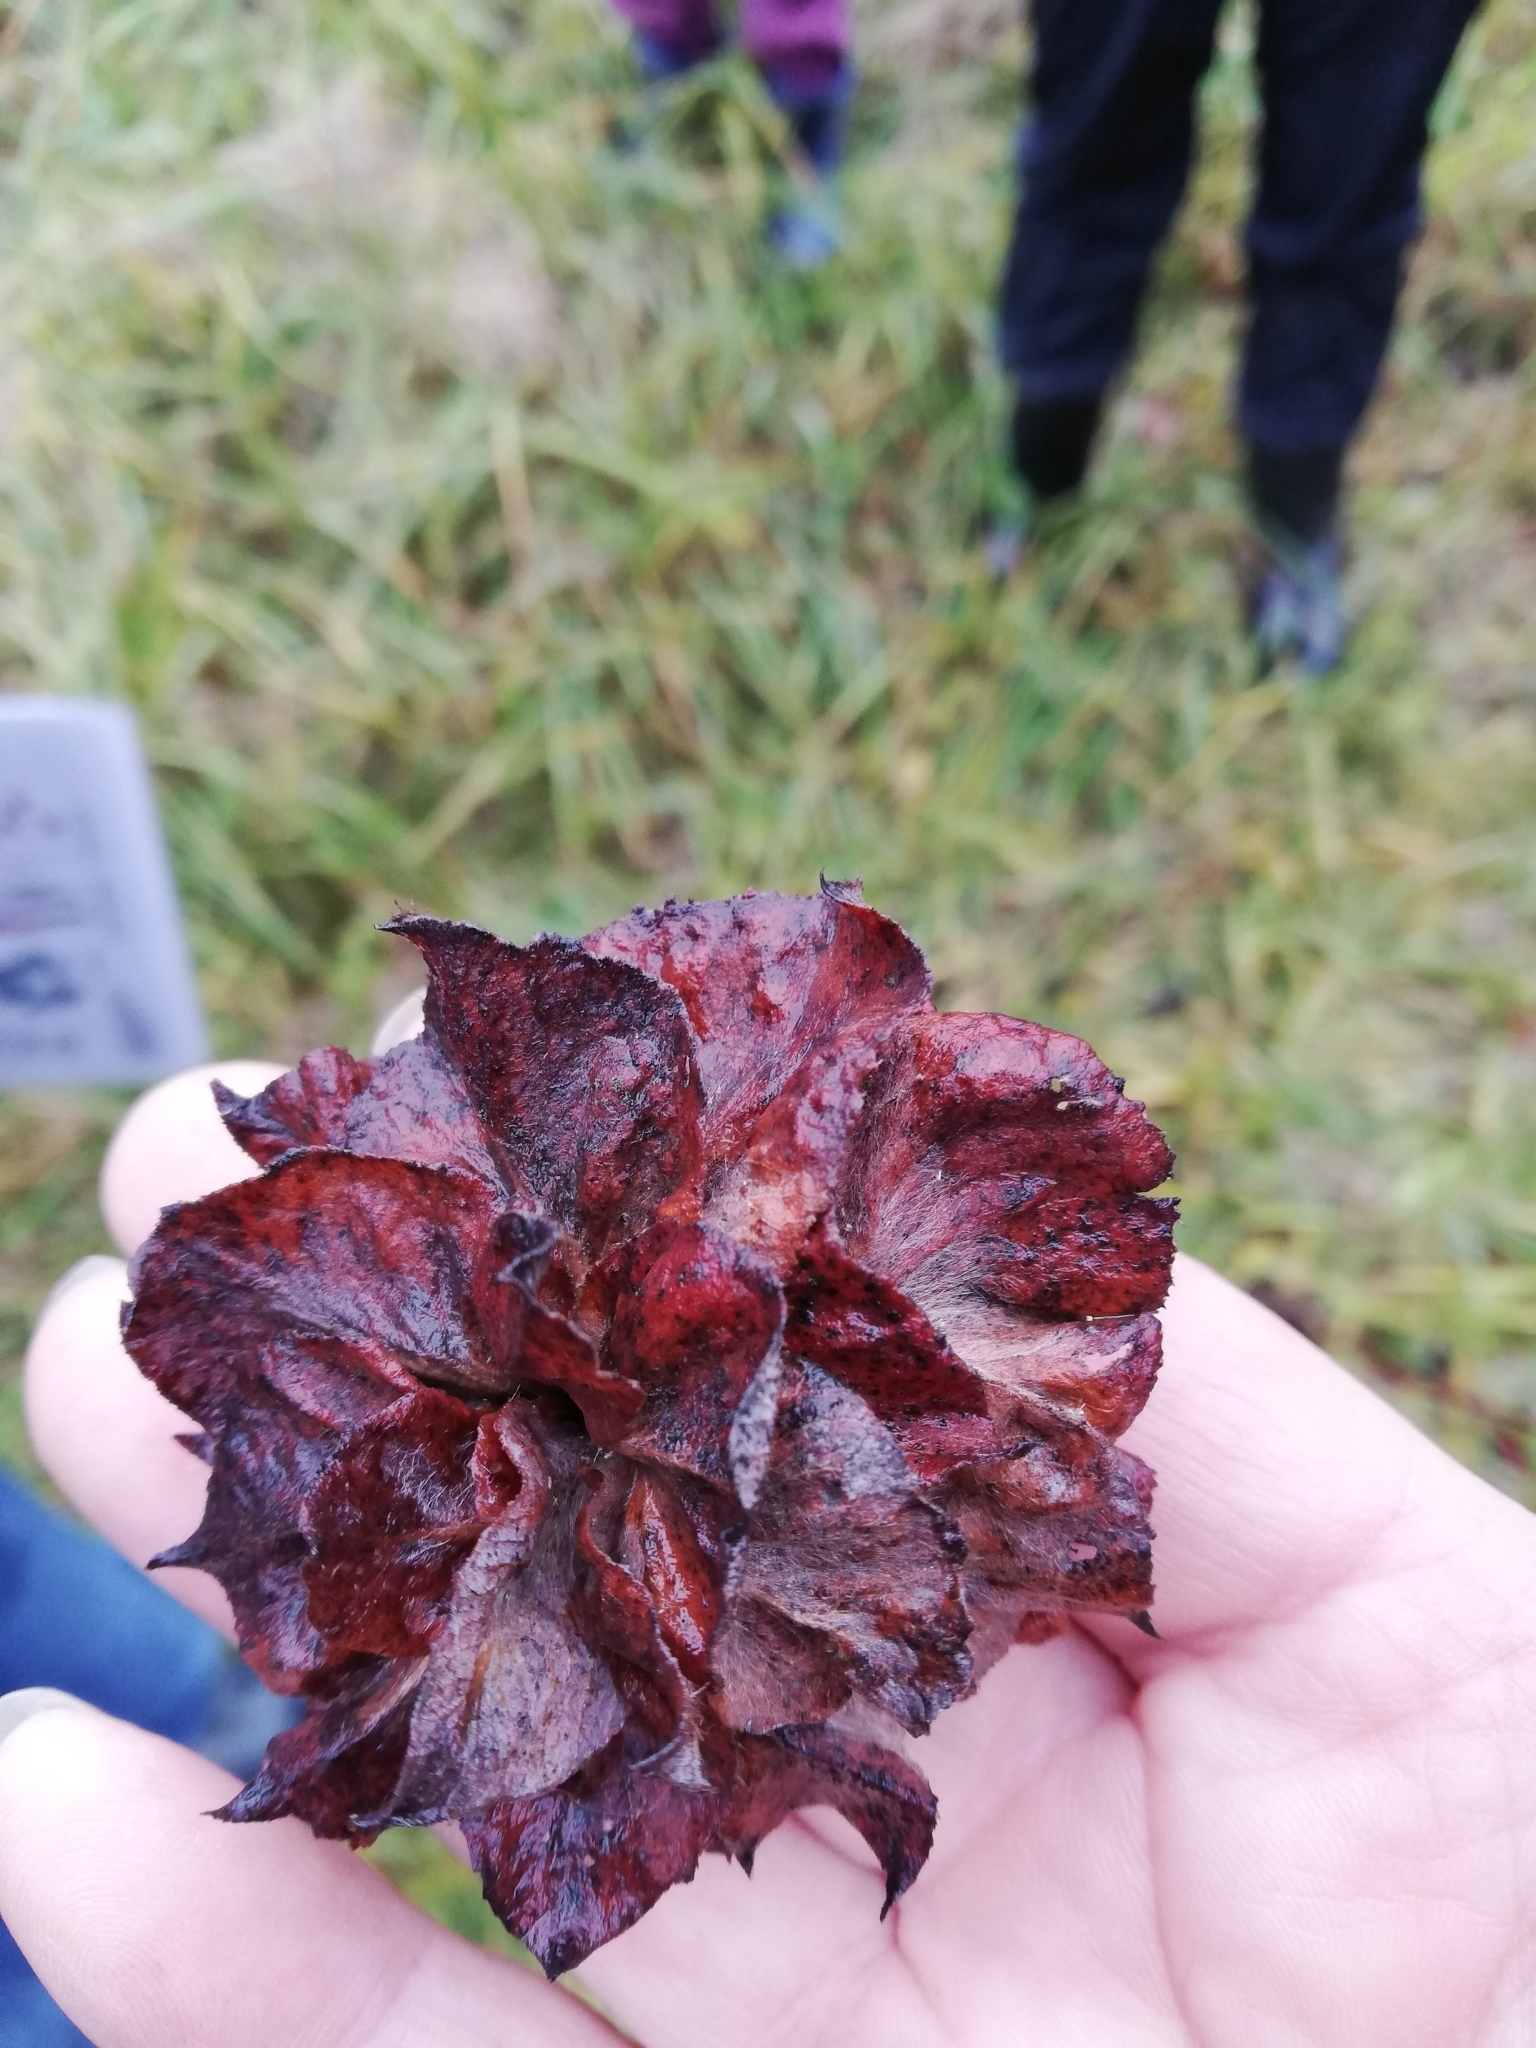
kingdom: Animalia
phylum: Arthropoda
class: Insecta
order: Diptera
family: Cecidomyiidae
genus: Rabdophaga
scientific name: Rabdophaga rosaria
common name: Willow rose gall midge
